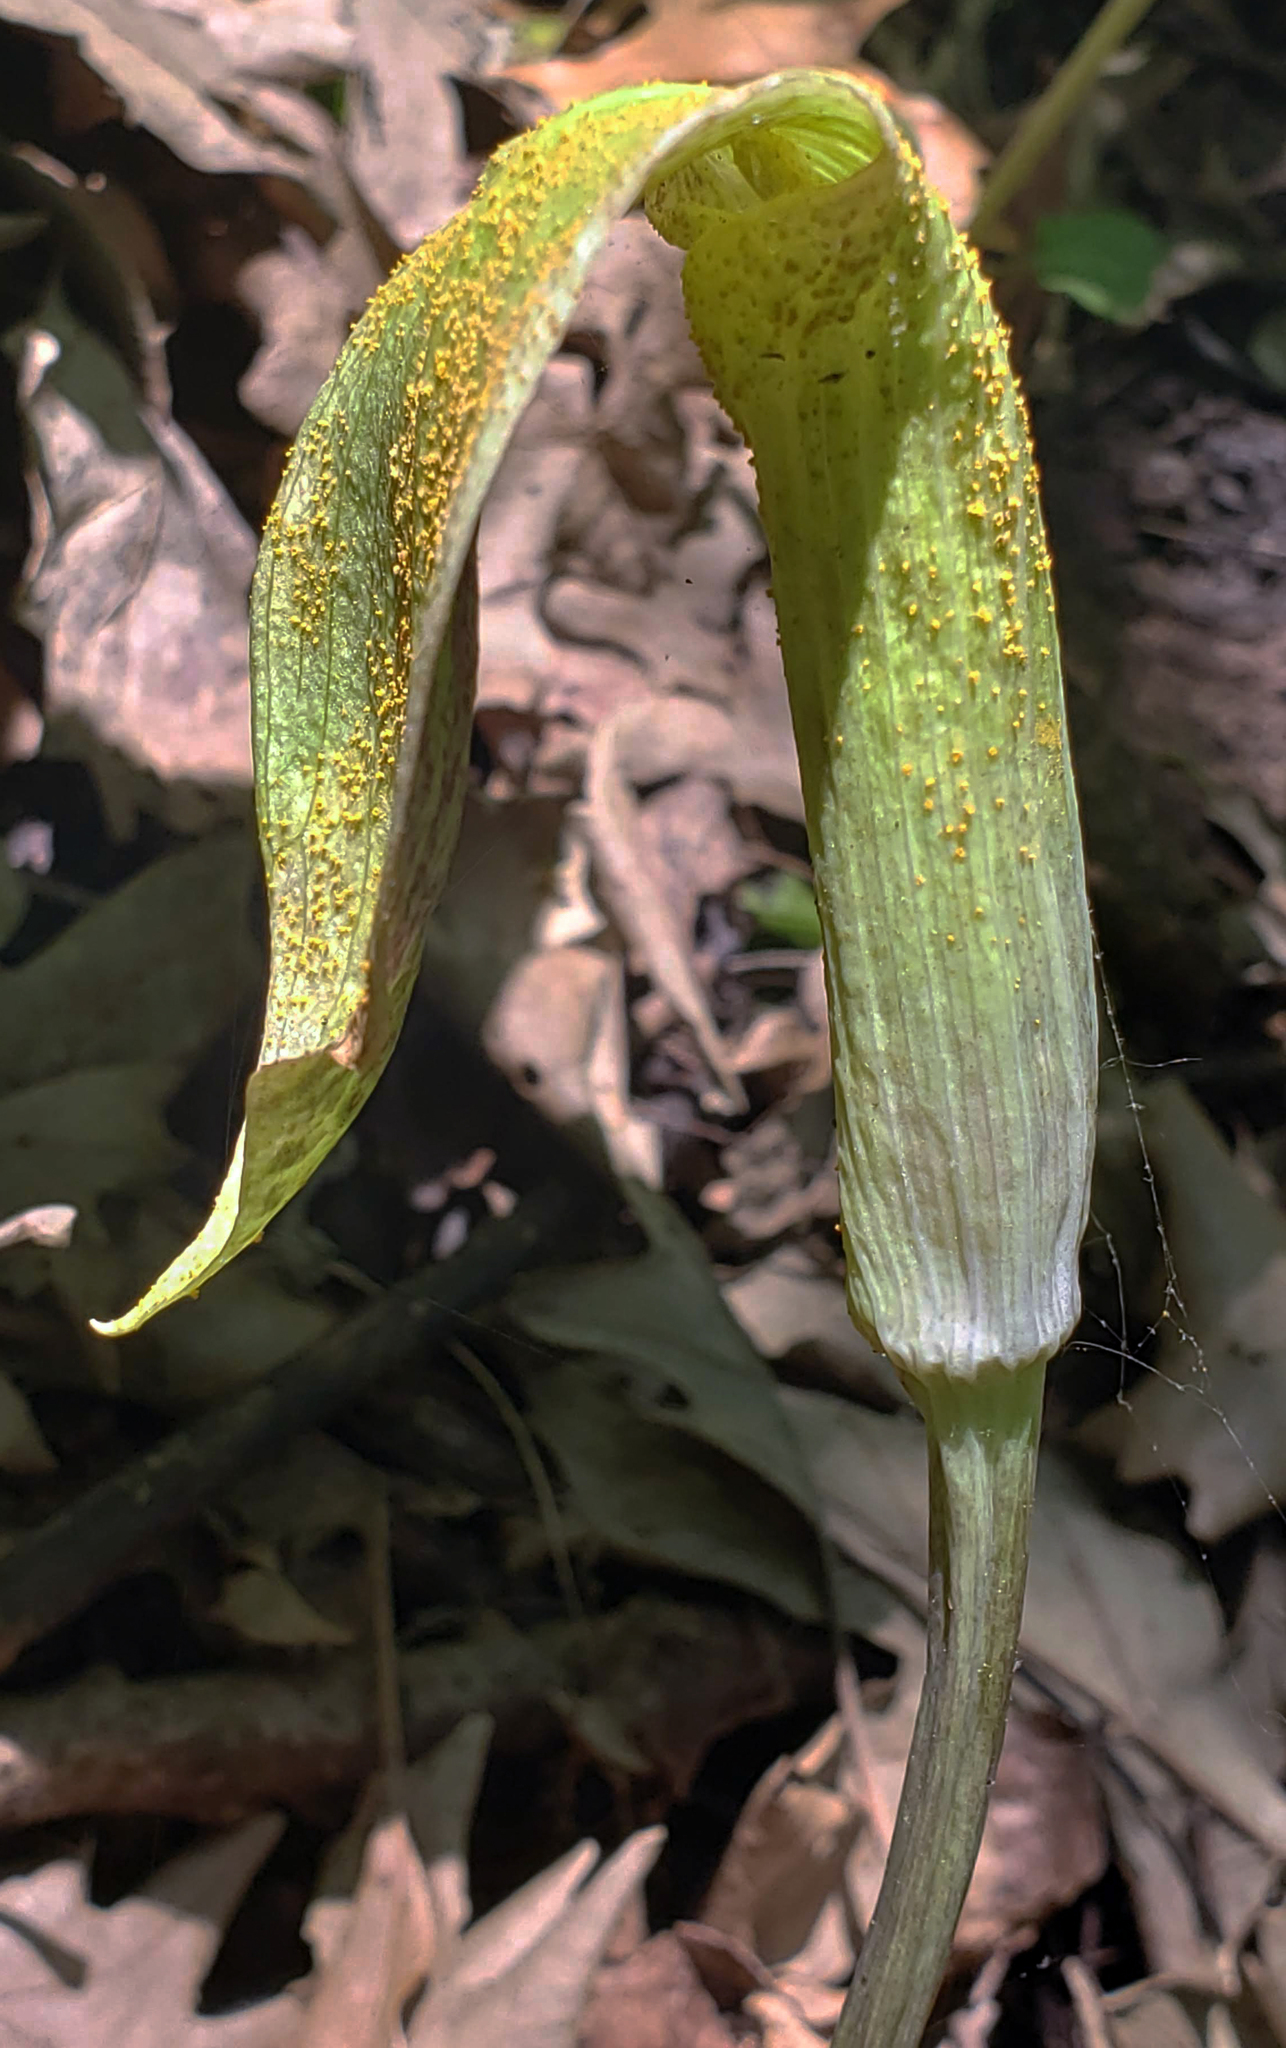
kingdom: Fungi
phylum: Basidiomycota
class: Pucciniomycetes
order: Pucciniales
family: Pucciniaceae
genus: Uromyces
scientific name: Uromyces ari-triphylli
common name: Jack-in-the-pulpit rust
